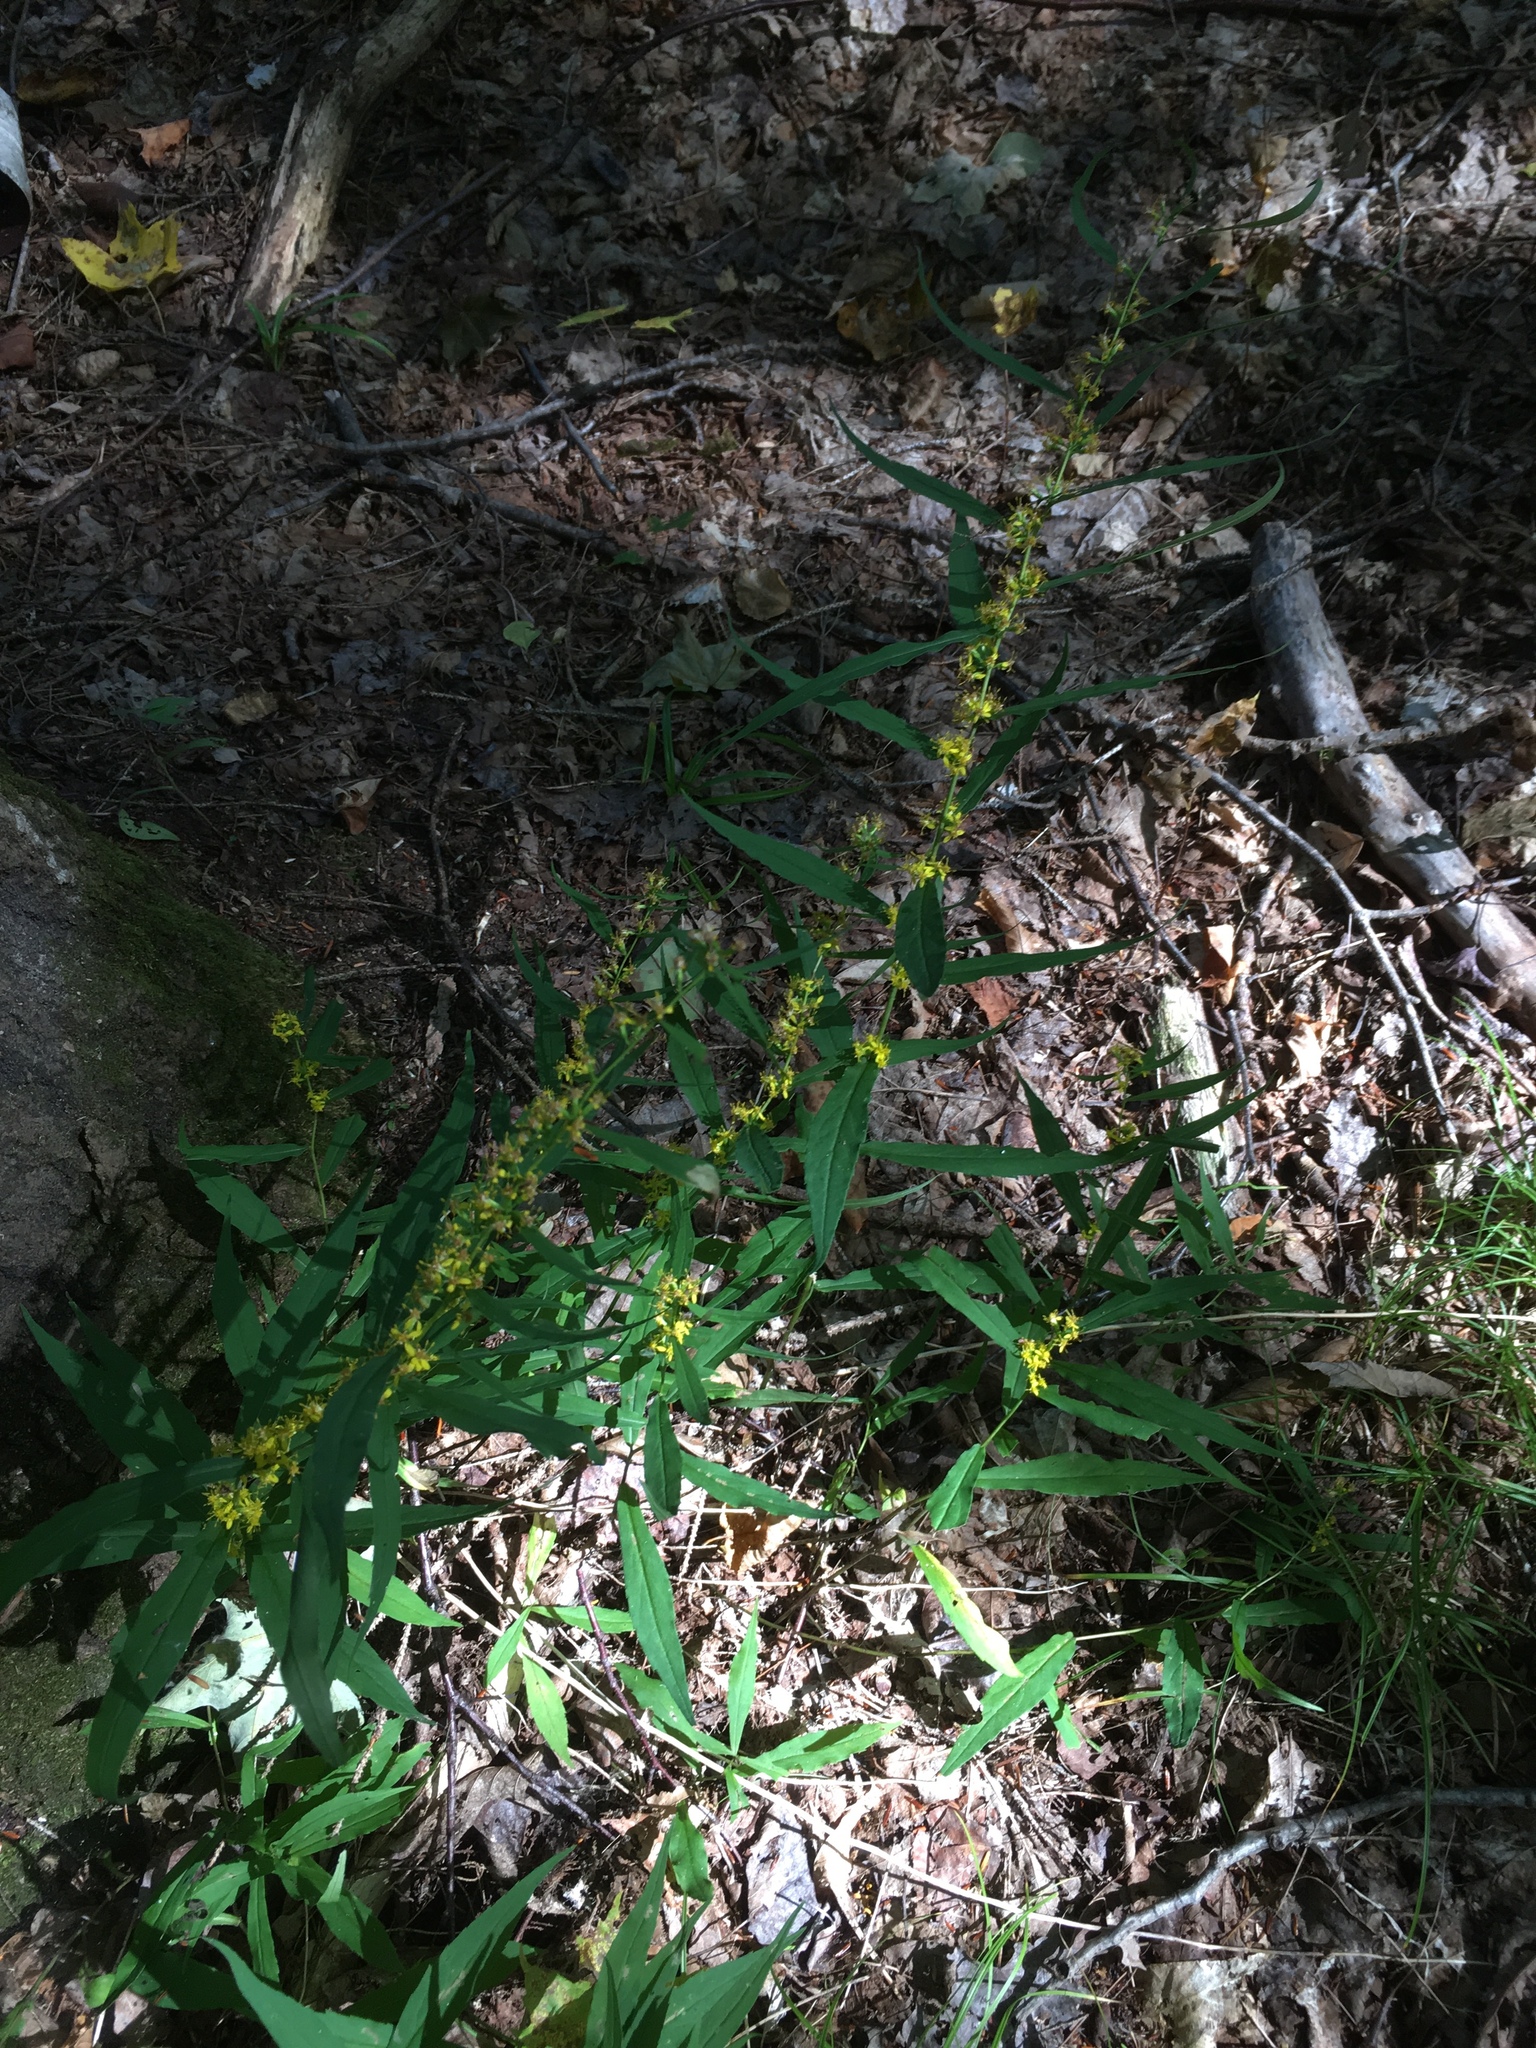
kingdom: Plantae
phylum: Tracheophyta
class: Magnoliopsida
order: Asterales
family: Asteraceae
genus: Solidago
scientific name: Solidago caesia
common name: Woodland goldenrod
